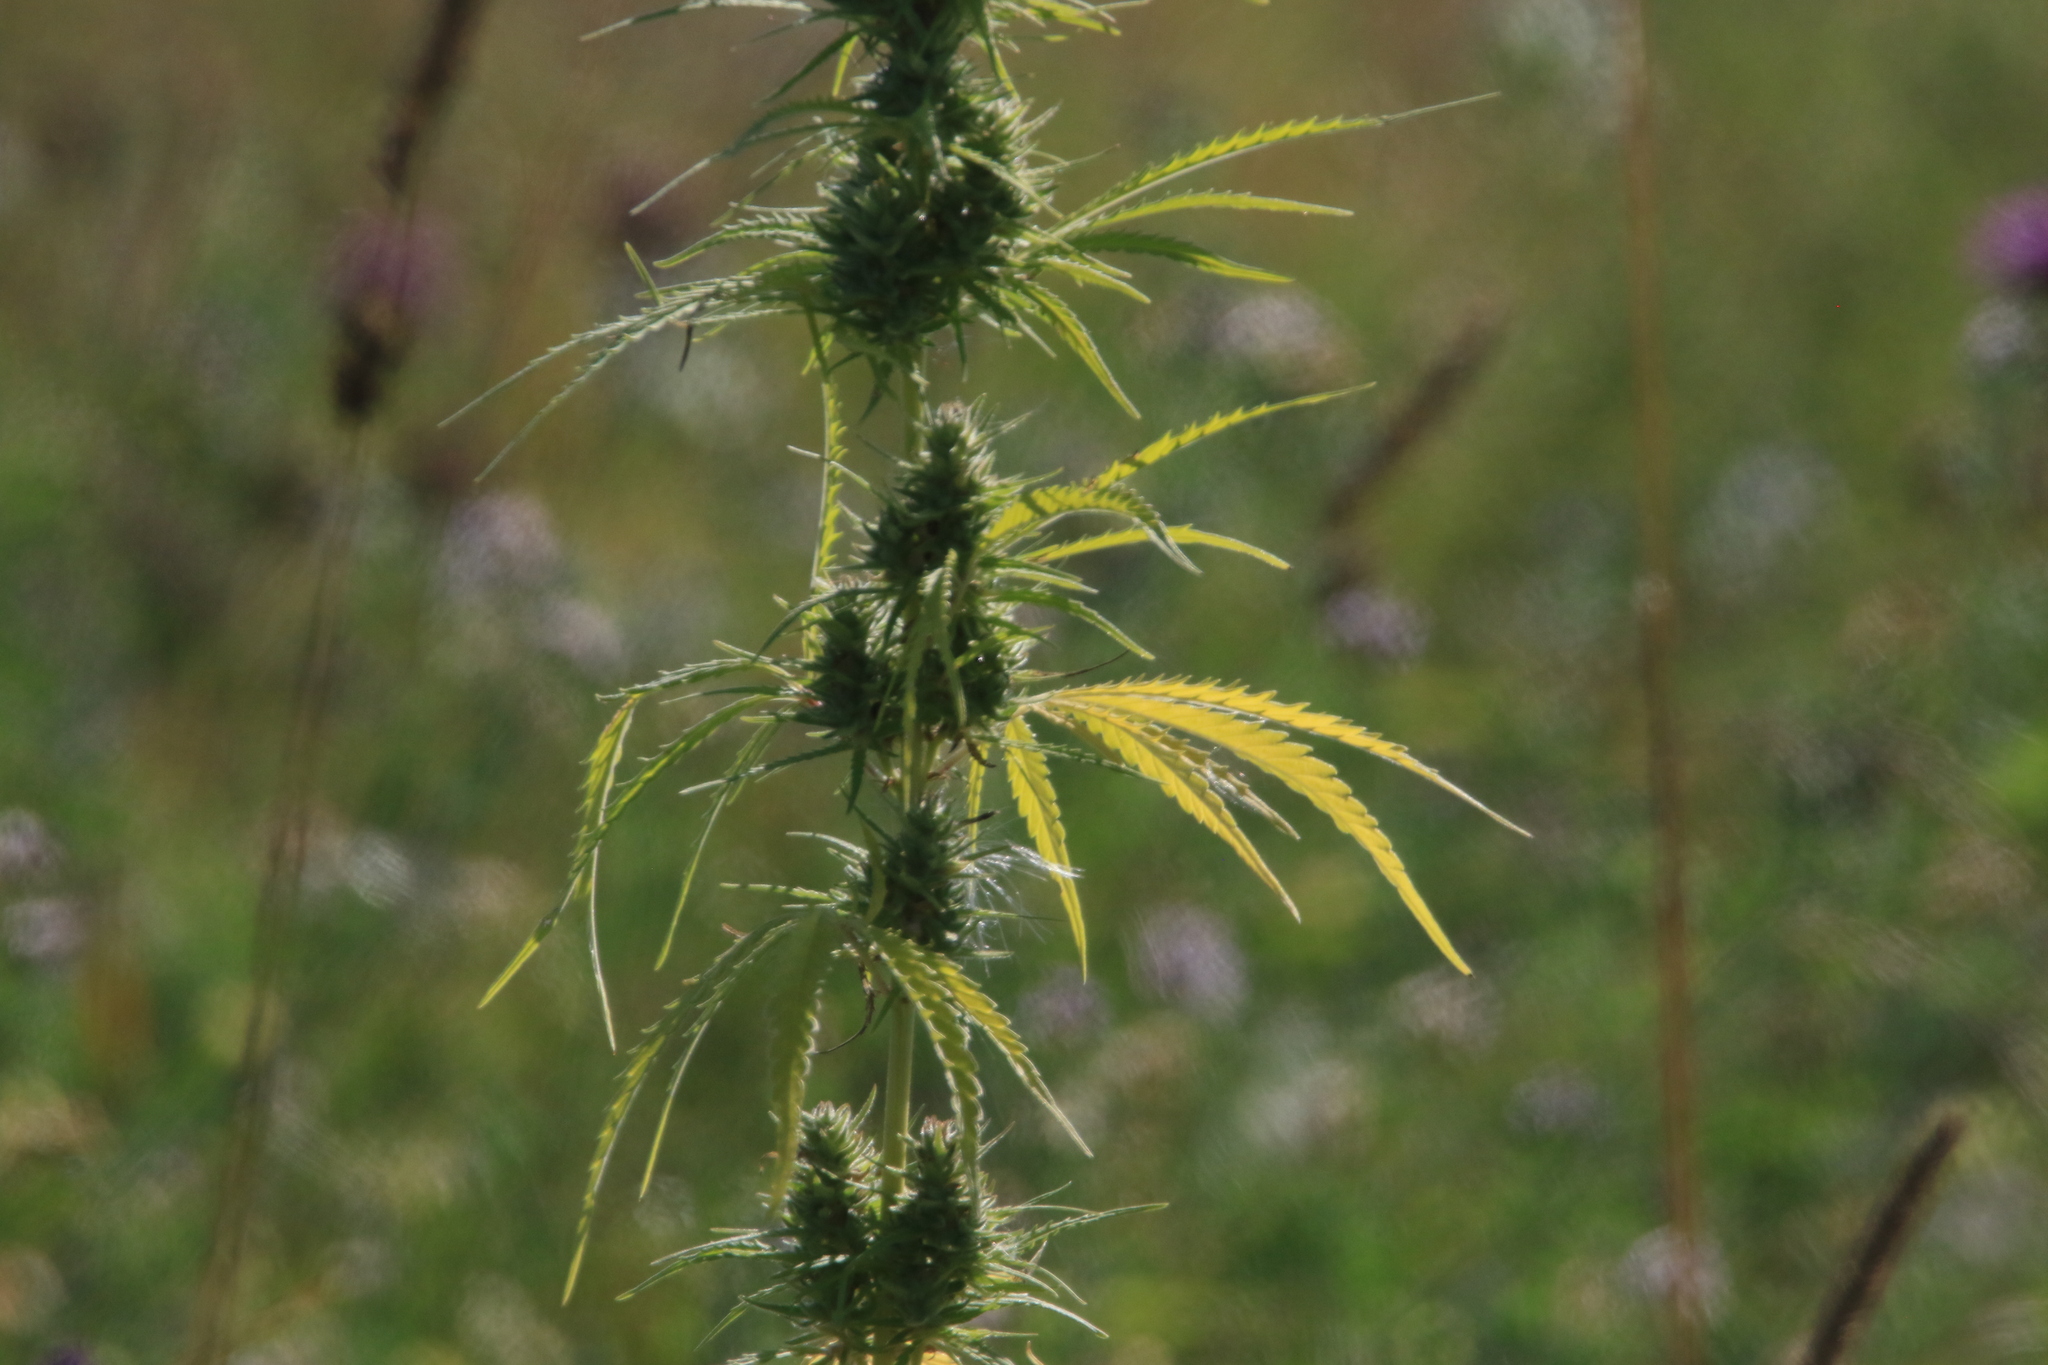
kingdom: Plantae
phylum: Tracheophyta
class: Magnoliopsida
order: Rosales
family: Cannabaceae
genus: Cannabis
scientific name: Cannabis sativa
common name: Hemp
